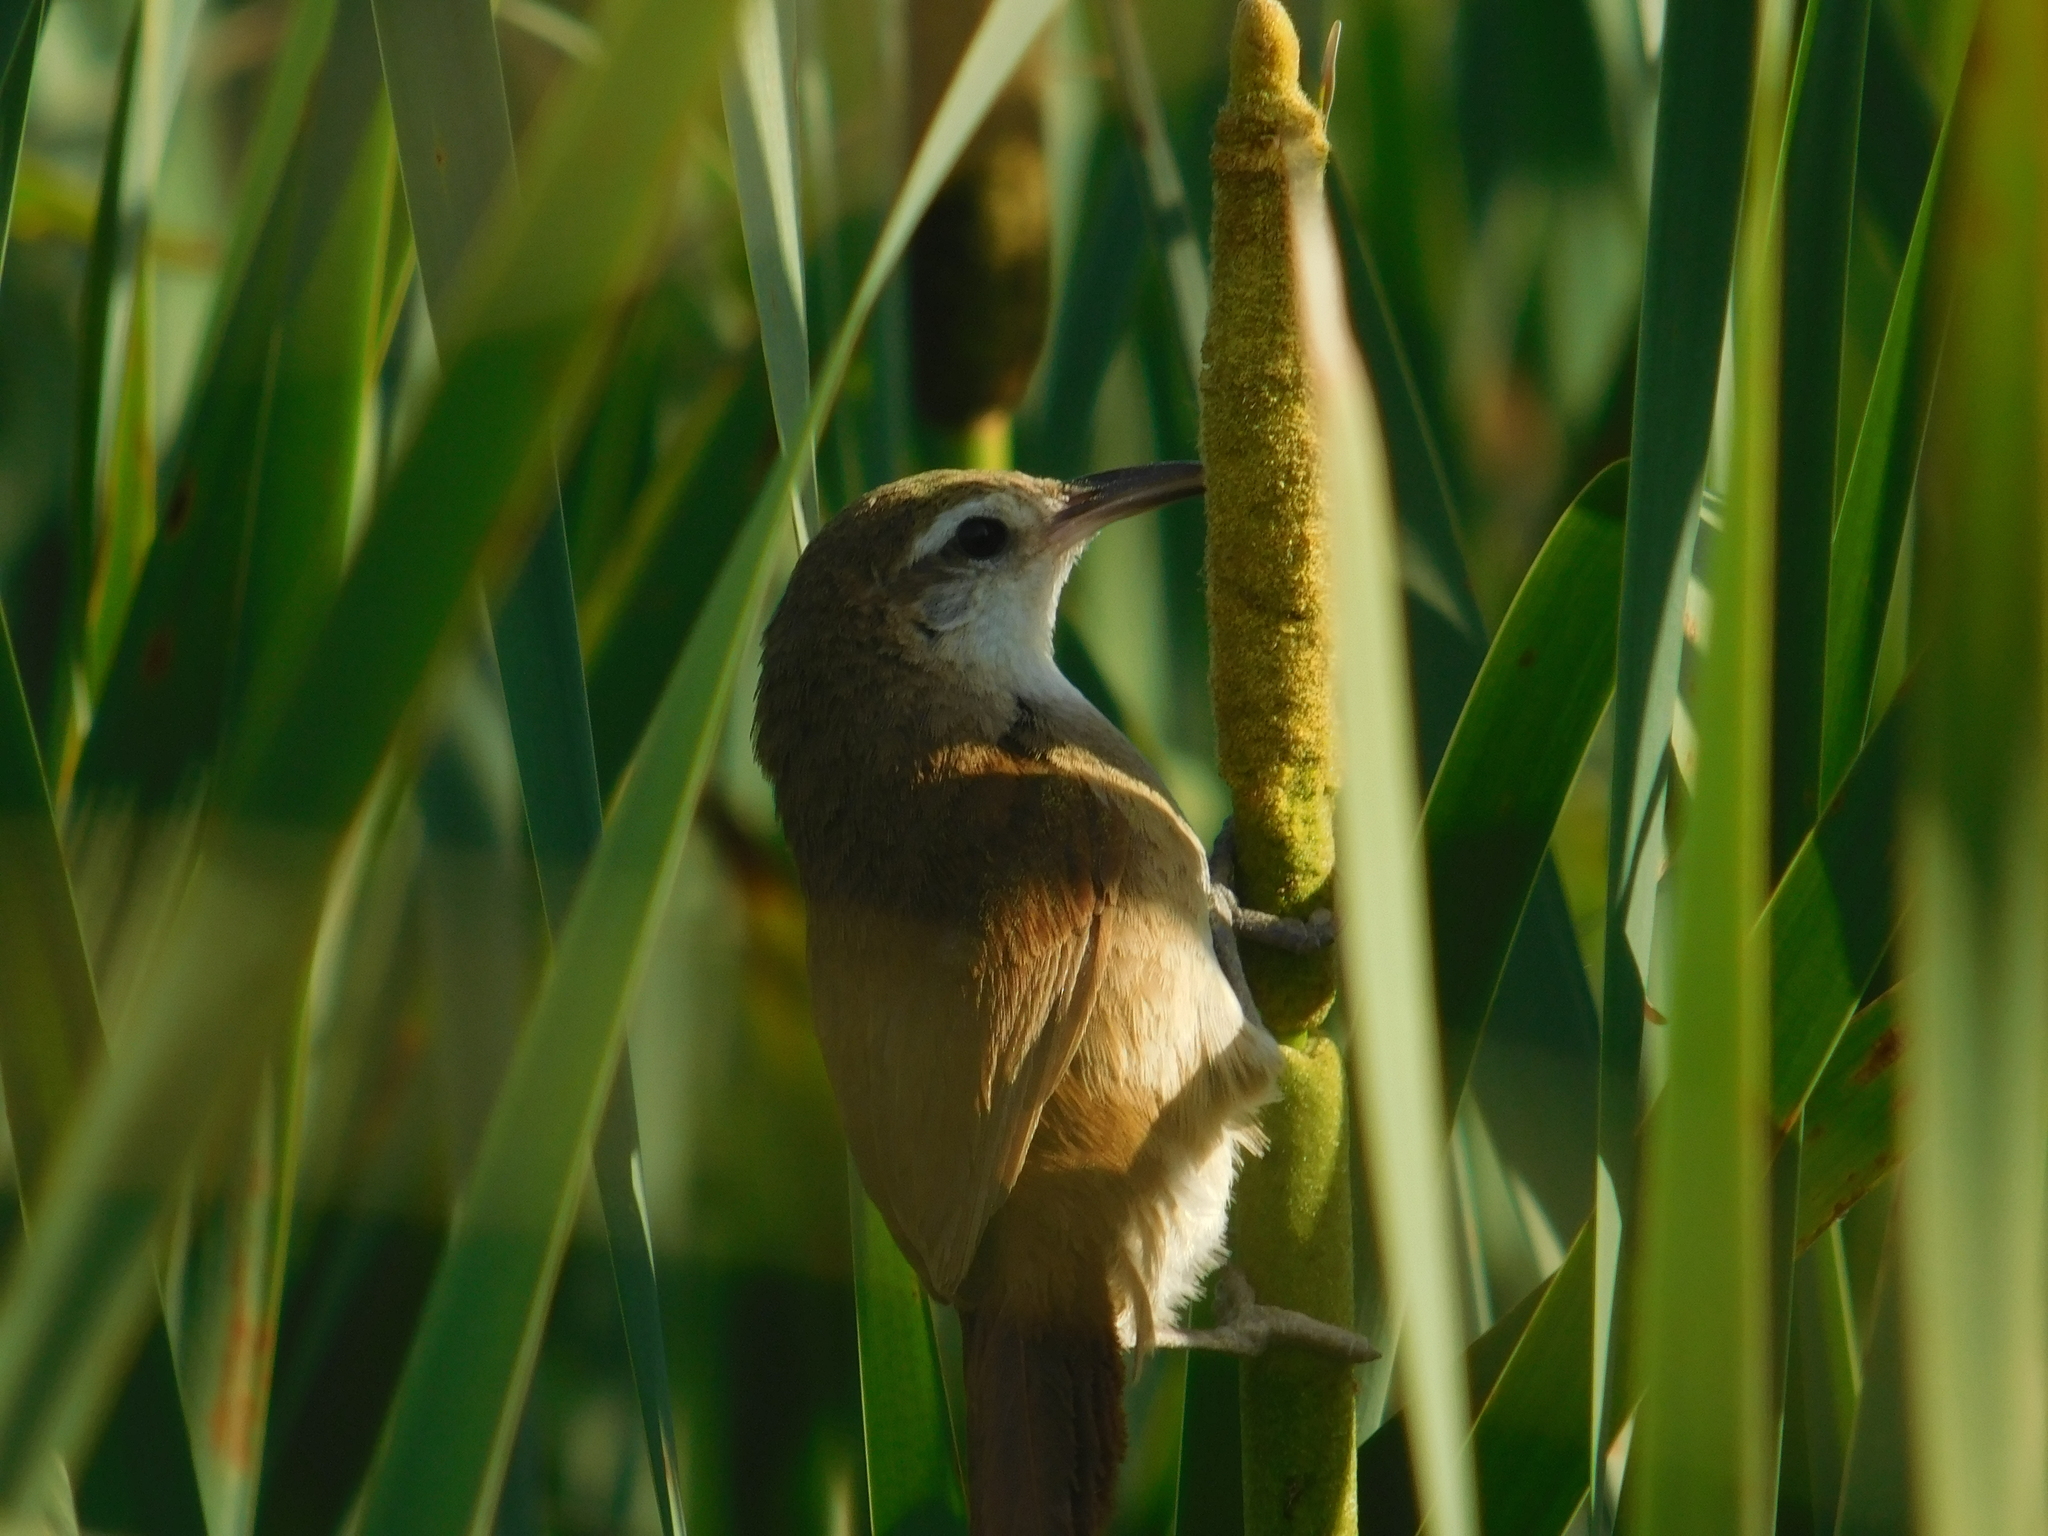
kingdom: Animalia
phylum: Chordata
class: Aves
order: Passeriformes
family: Furnariidae
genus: Limnornis
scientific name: Limnornis curvirostris
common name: Curve-billed reedhaunter
